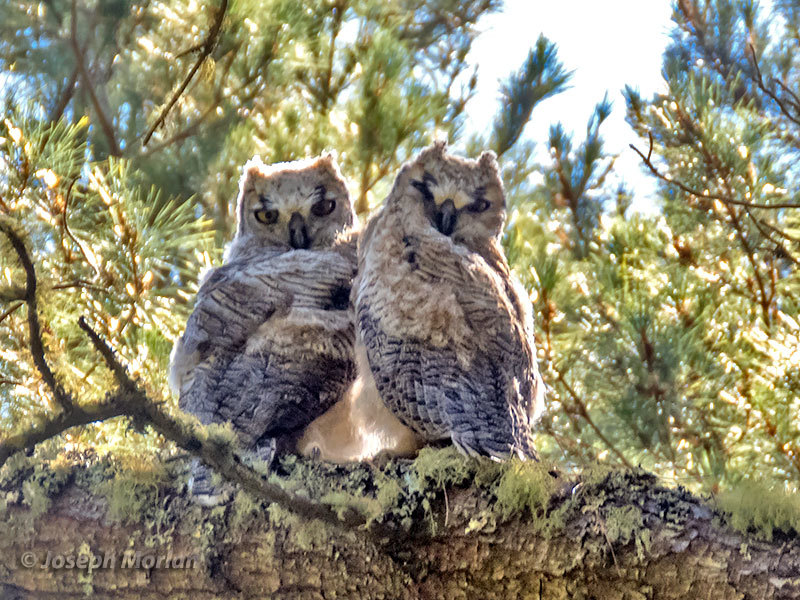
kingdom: Animalia
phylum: Chordata
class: Aves
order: Strigiformes
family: Strigidae
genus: Bubo
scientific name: Bubo virginianus
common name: Great horned owl
